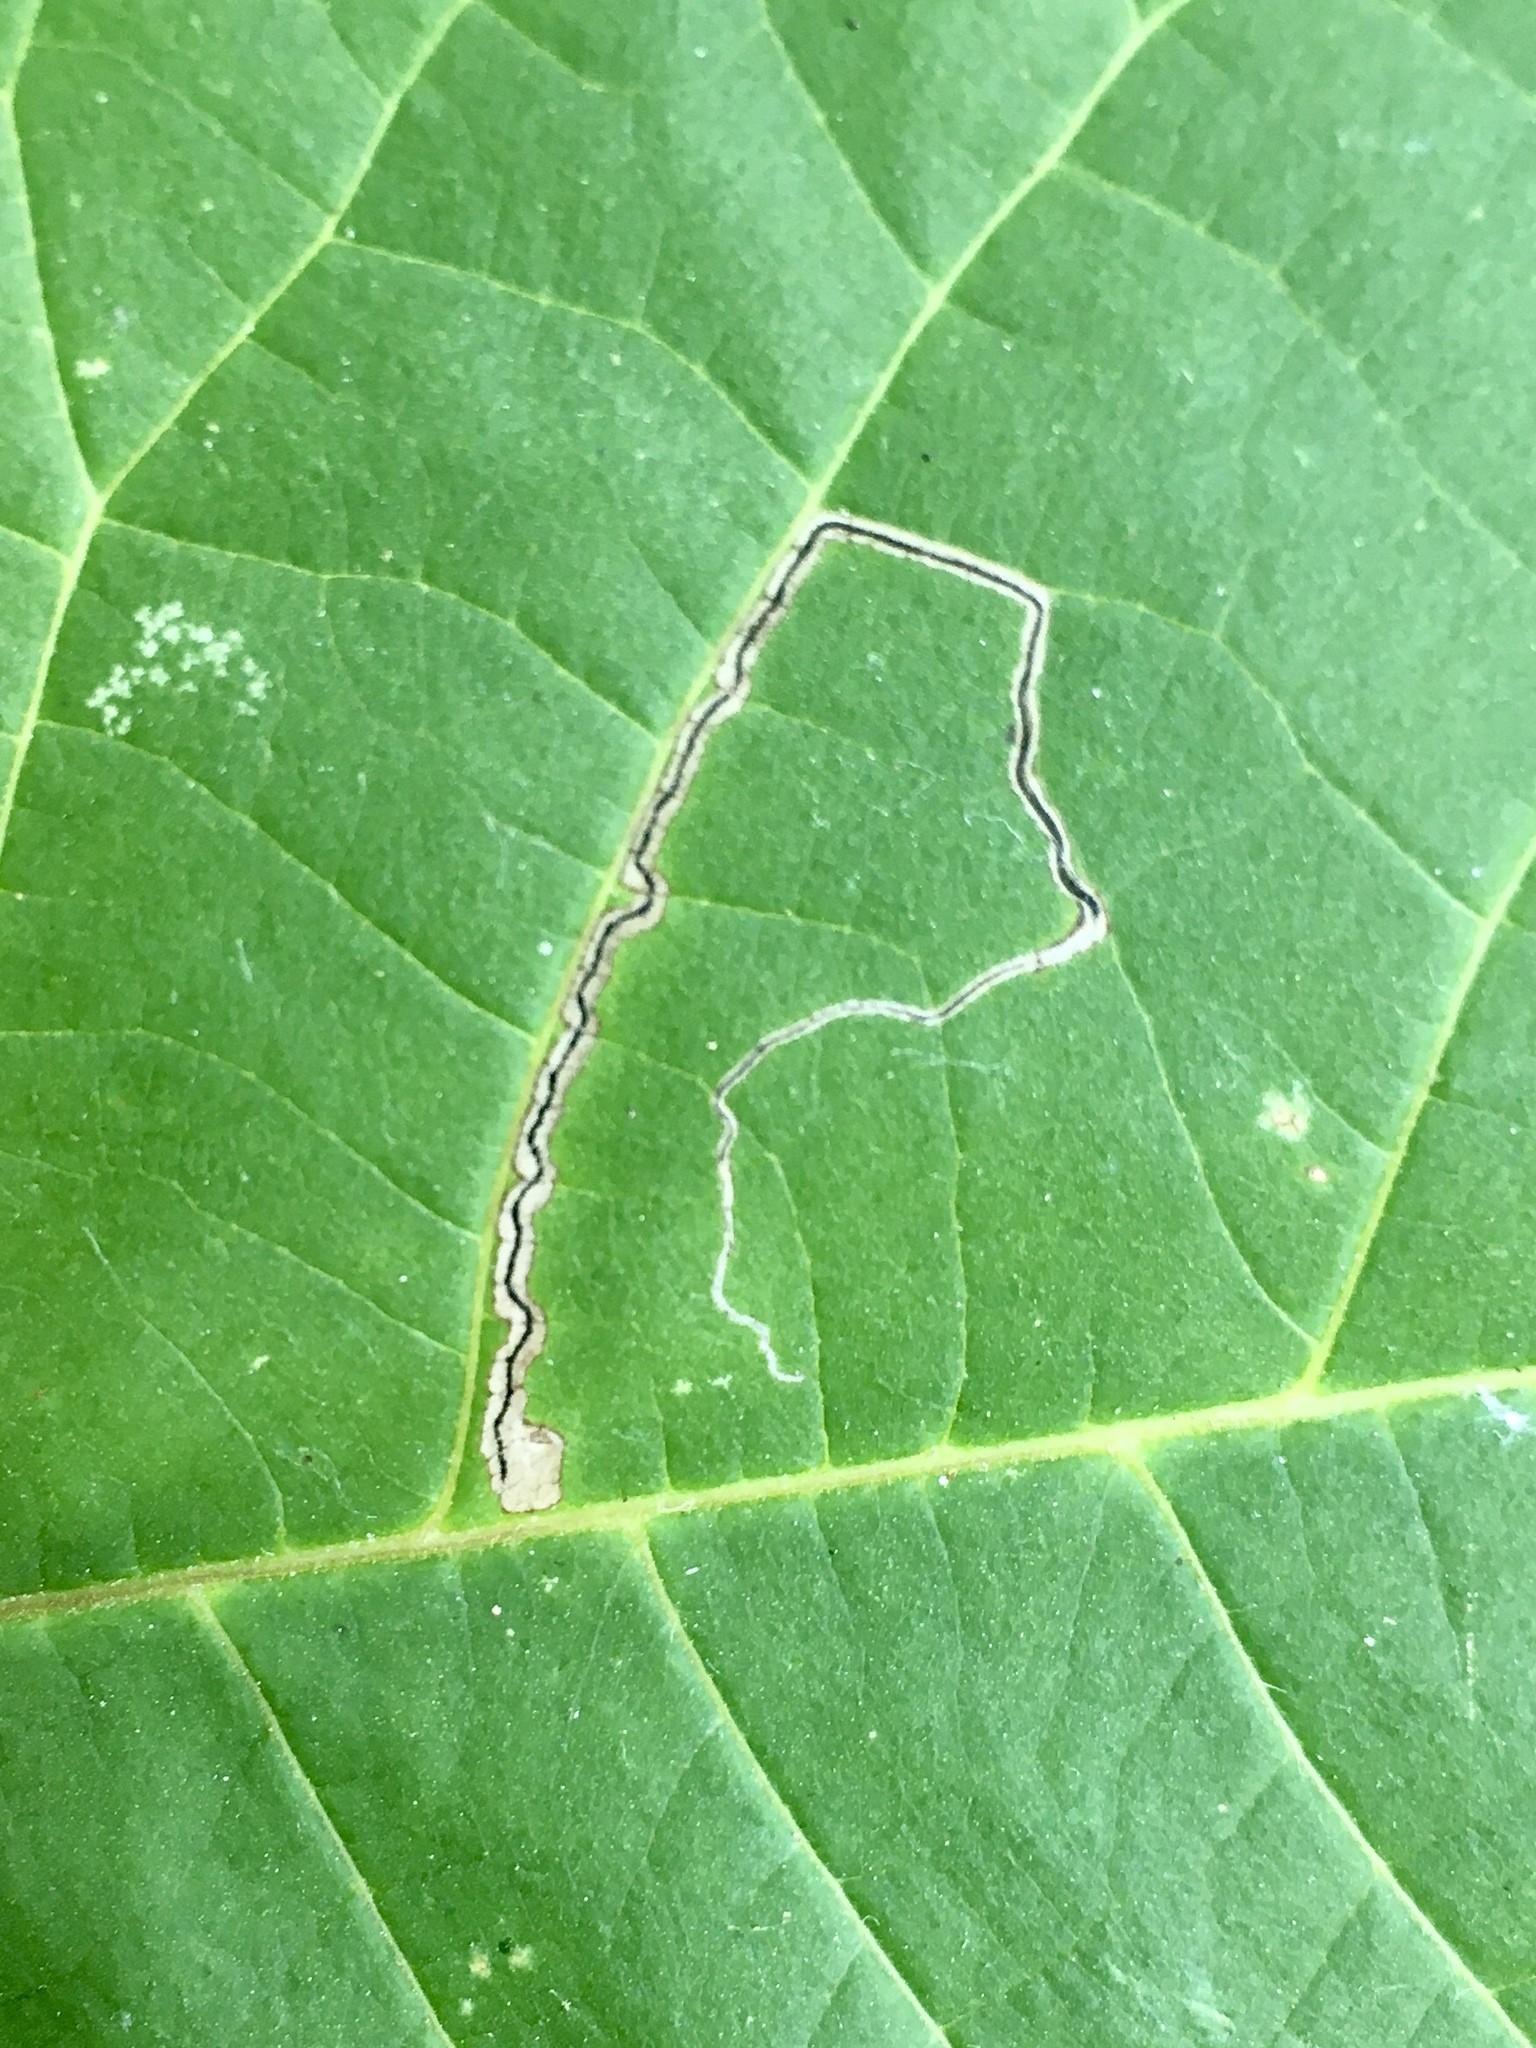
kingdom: Animalia
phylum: Arthropoda
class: Insecta
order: Lepidoptera
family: Nepticulidae
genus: Stigmella
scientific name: Stigmella juglandifoliella
